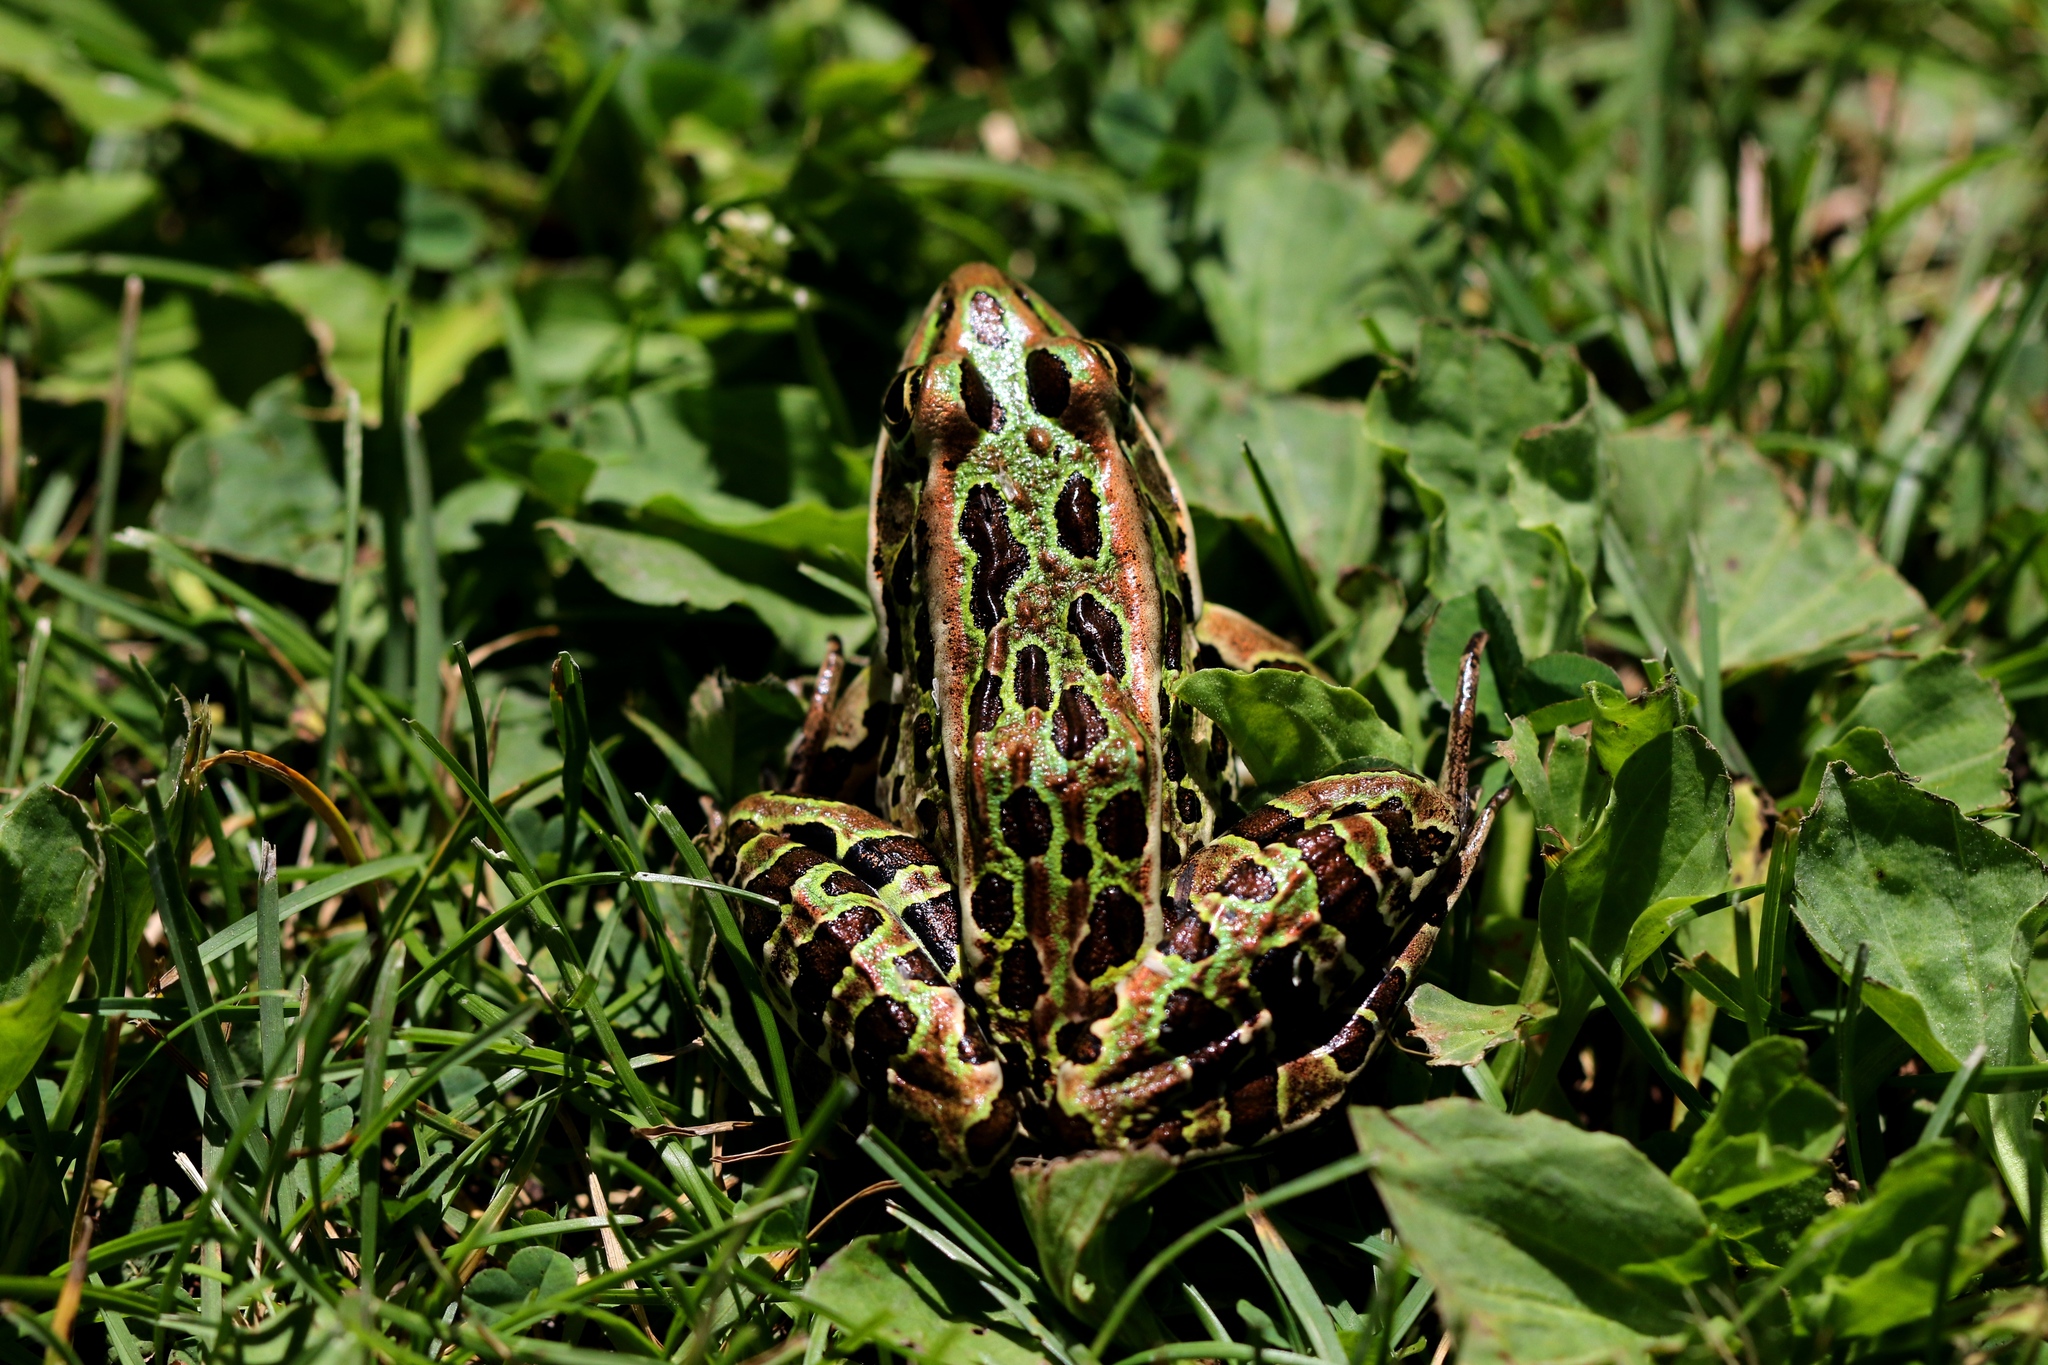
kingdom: Animalia
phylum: Chordata
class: Amphibia
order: Anura
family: Ranidae
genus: Lithobates
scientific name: Lithobates pipiens
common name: Northern leopard frog
